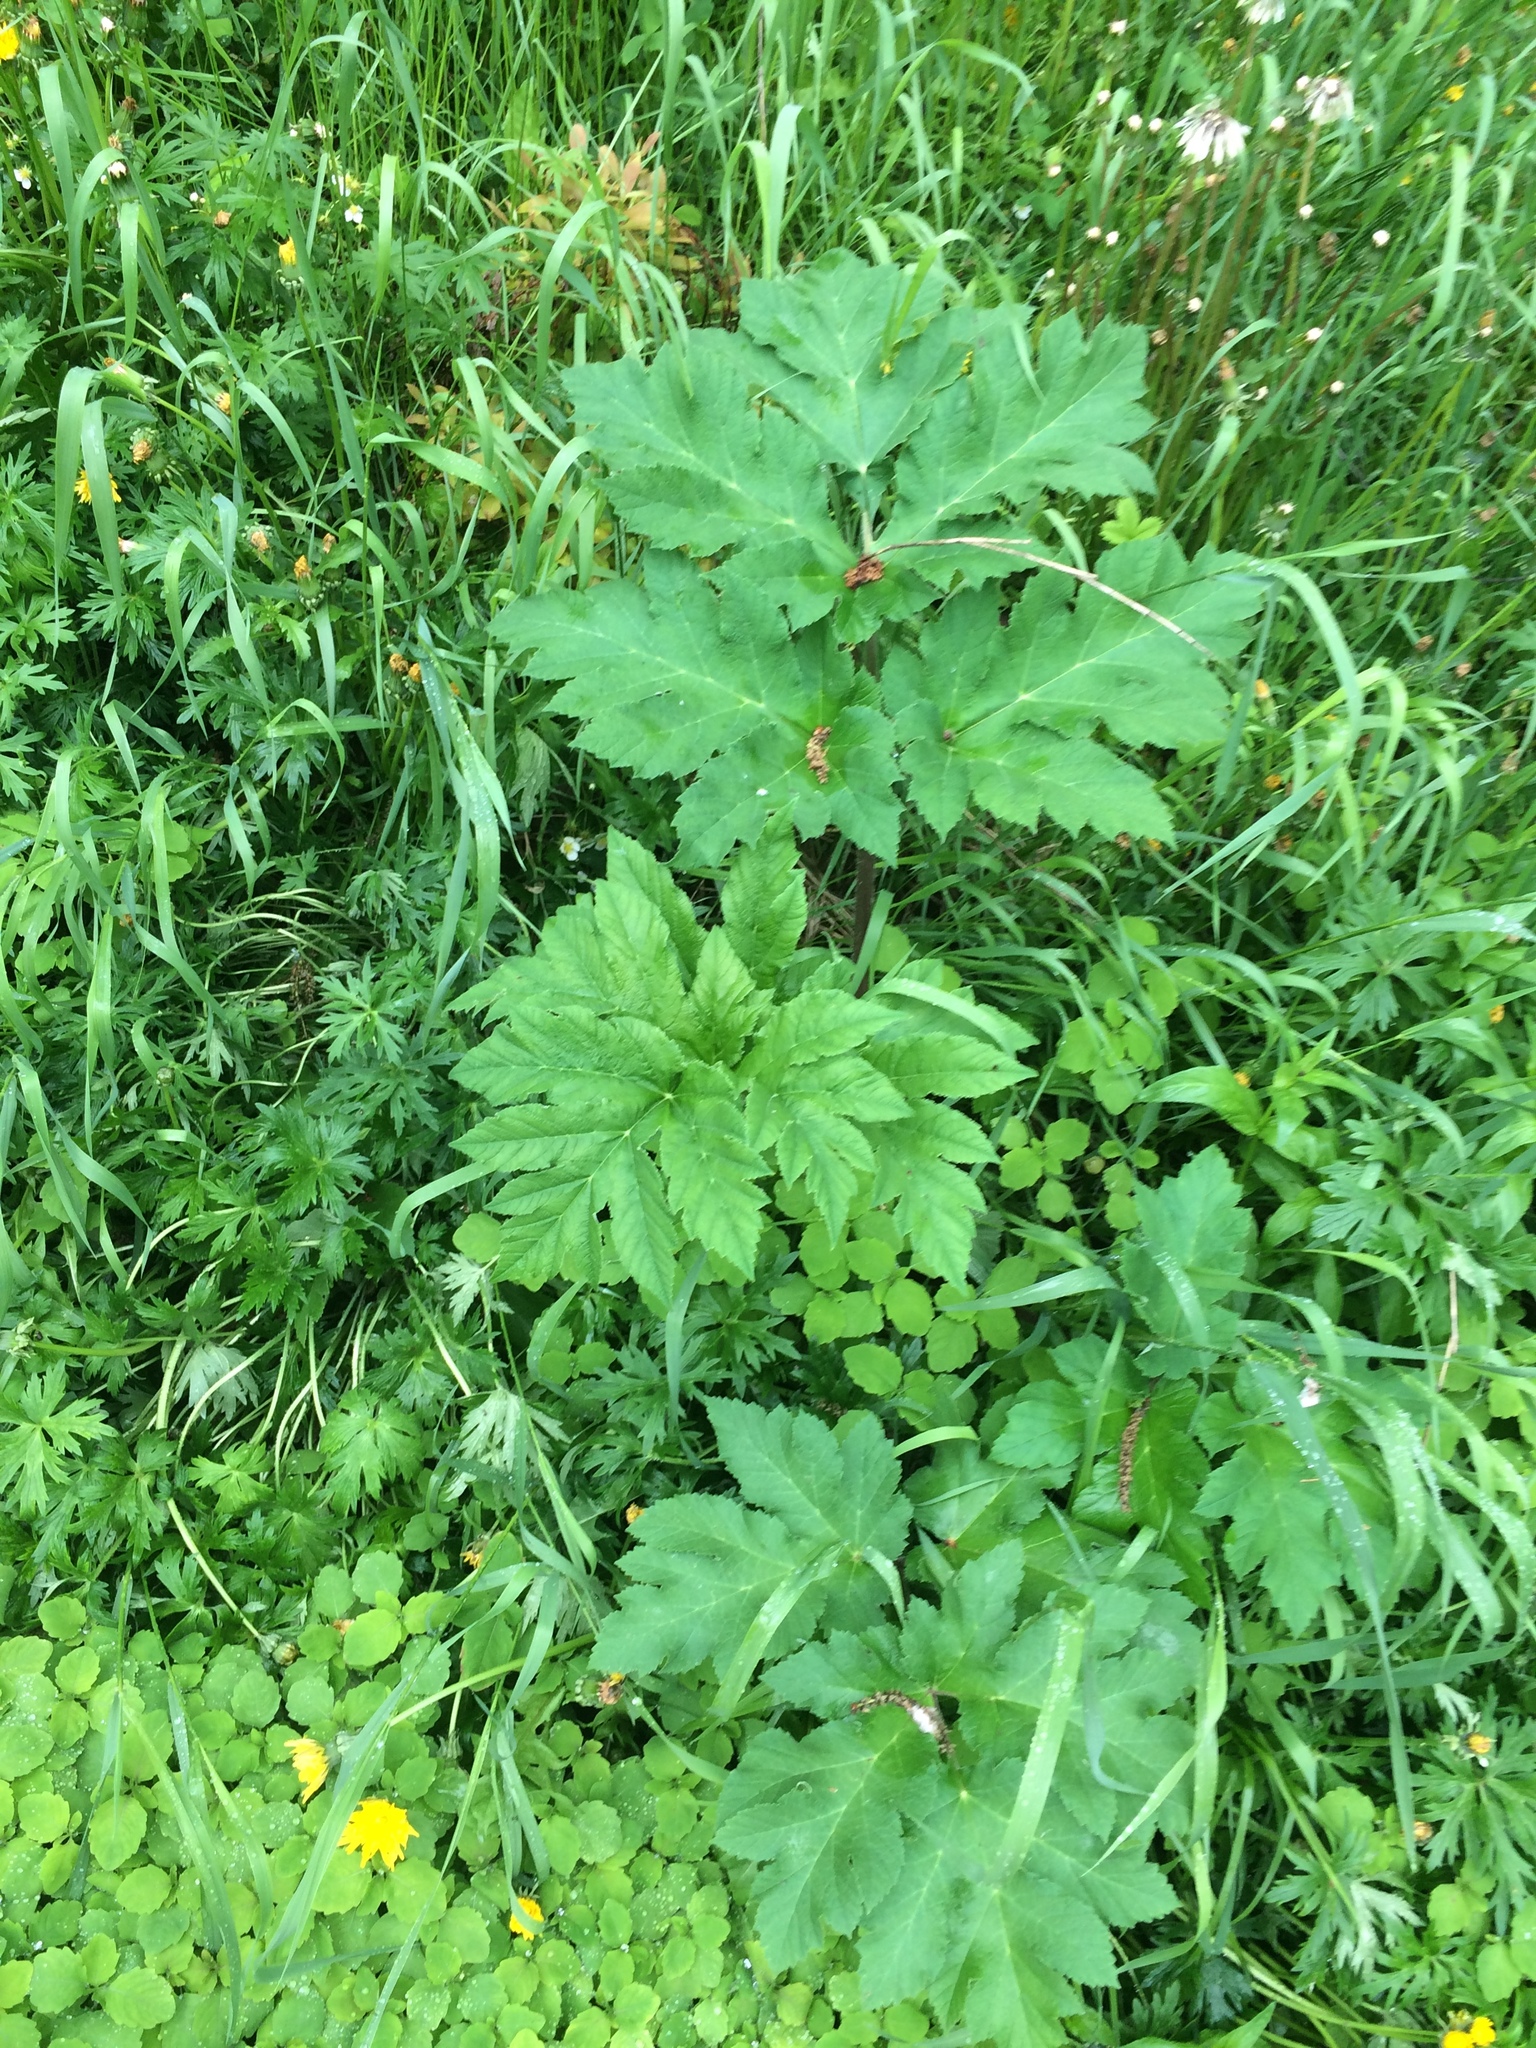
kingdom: Plantae
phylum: Tracheophyta
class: Magnoliopsida
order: Apiales
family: Apiaceae
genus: Heracleum
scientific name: Heracleum maximum
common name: American cow parsnip
